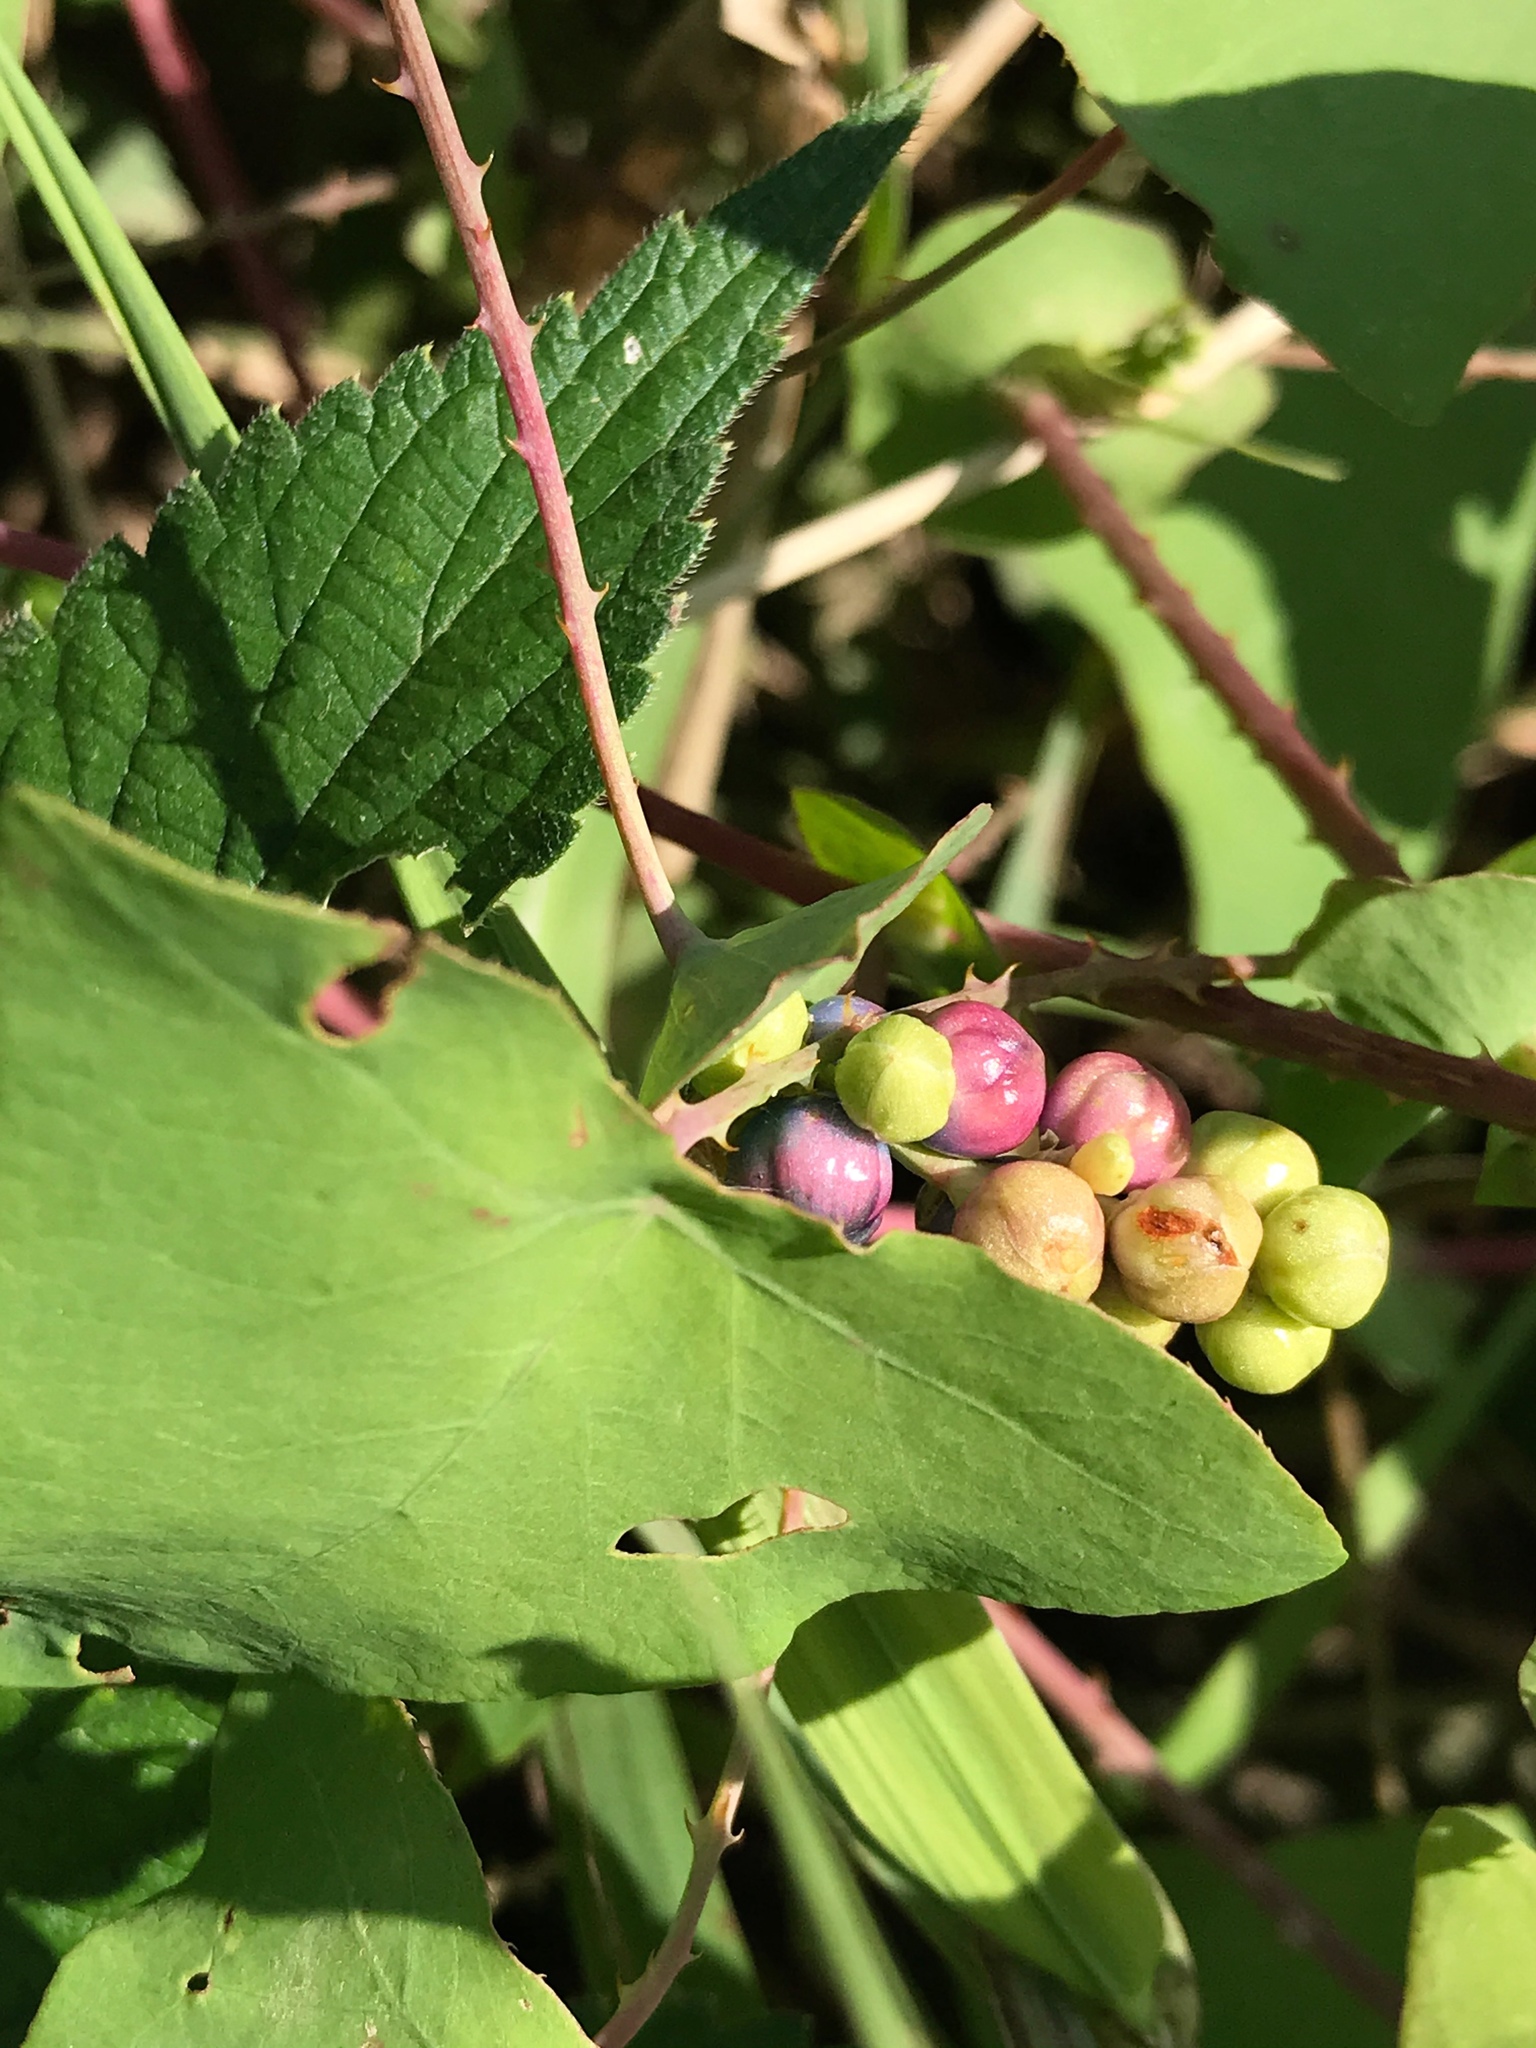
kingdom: Plantae
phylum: Tracheophyta
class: Magnoliopsida
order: Caryophyllales
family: Polygonaceae
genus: Persicaria
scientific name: Persicaria perfoliata
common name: Asiatic tearthumb
